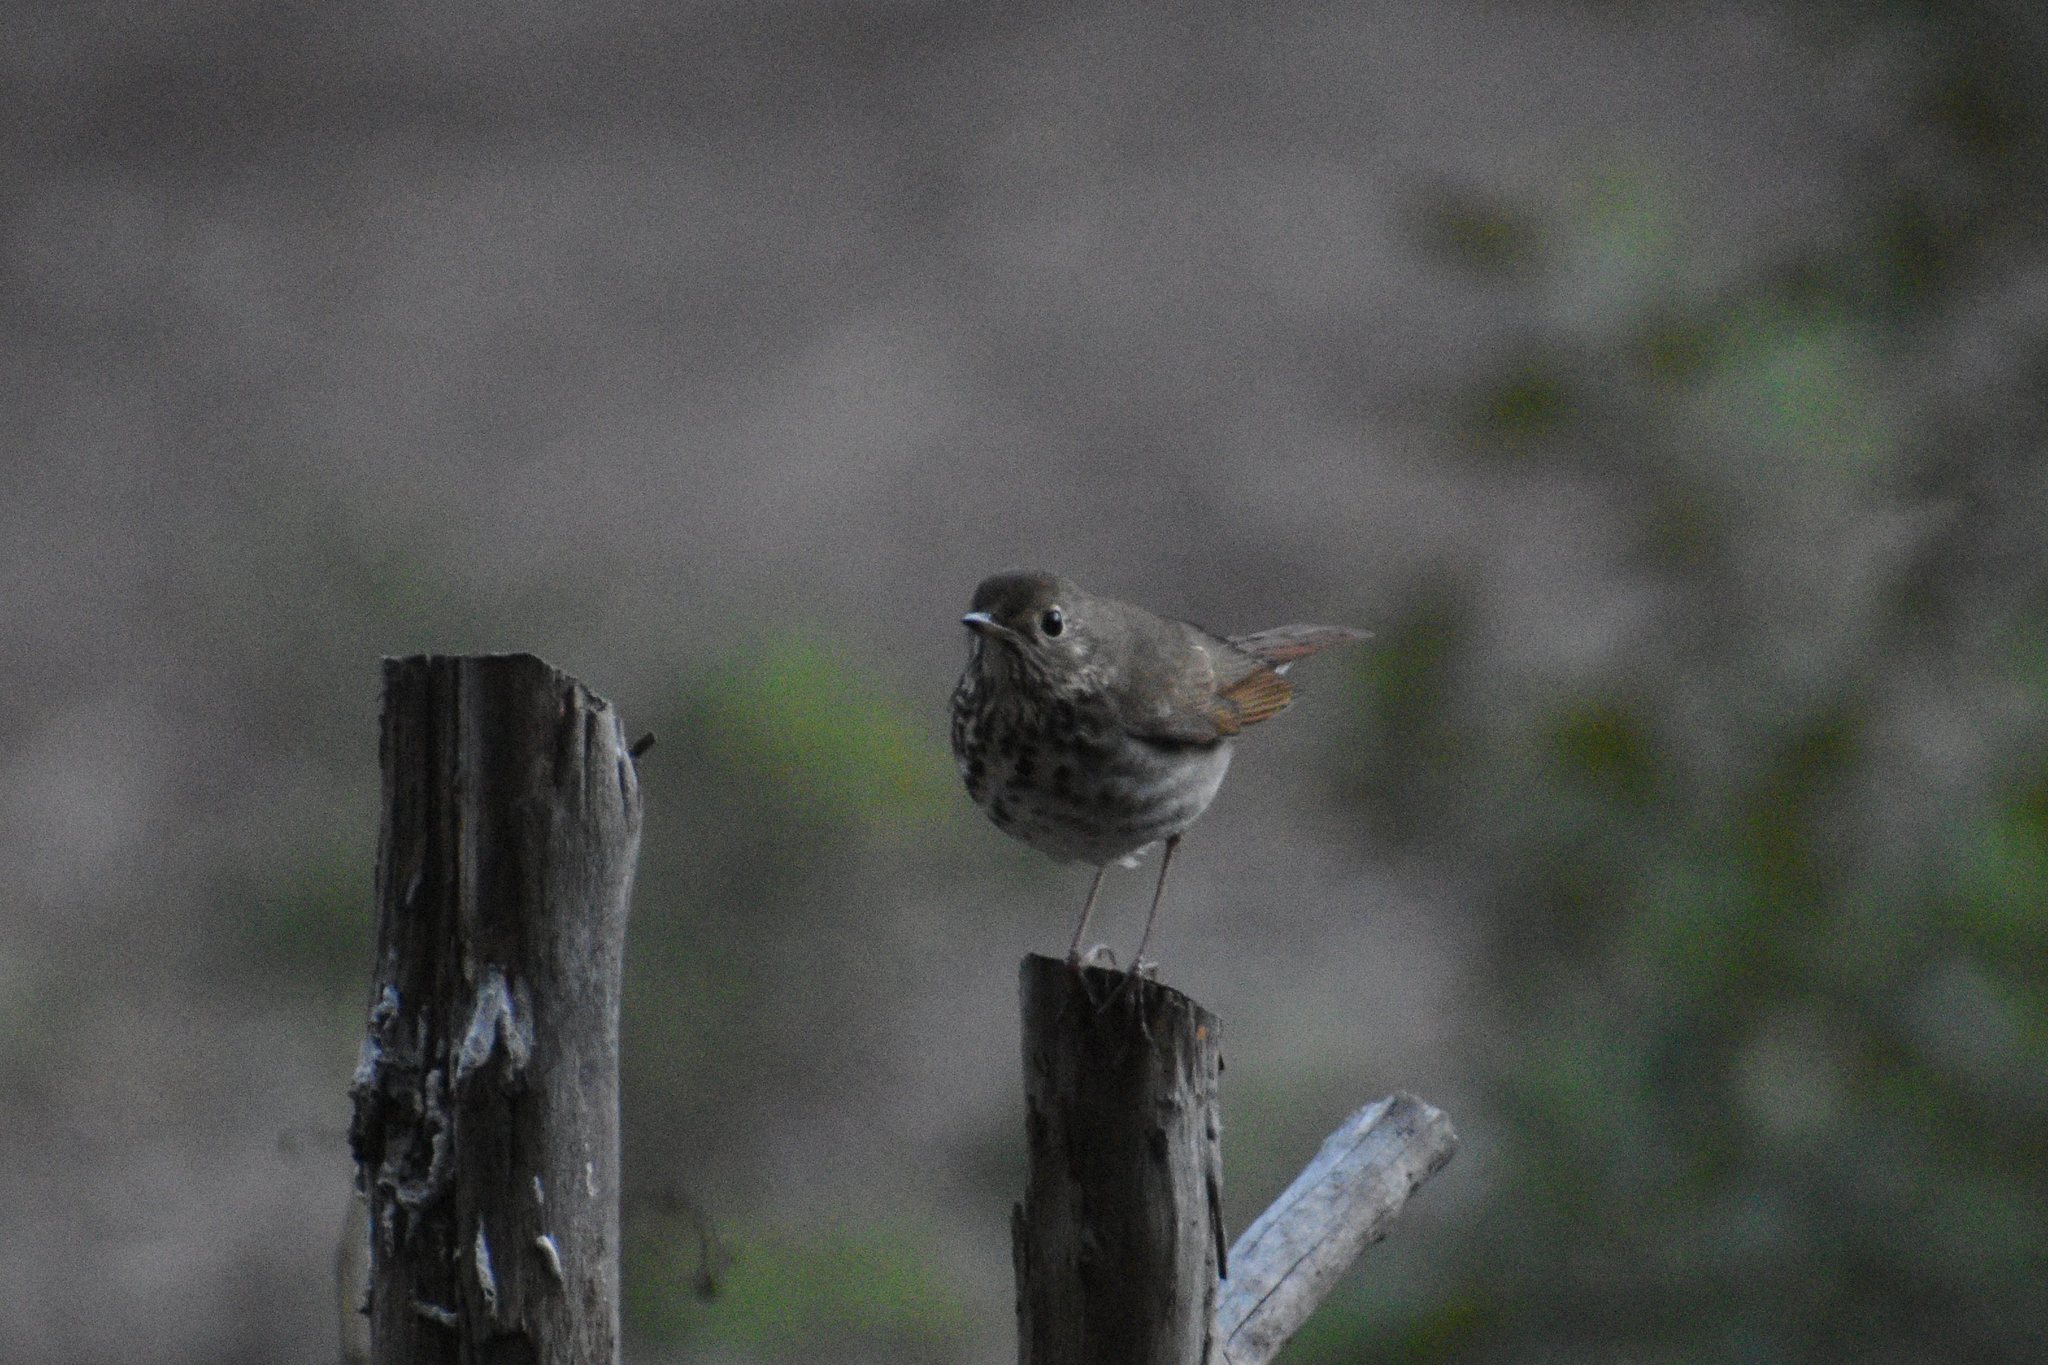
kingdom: Animalia
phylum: Chordata
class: Aves
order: Passeriformes
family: Turdidae
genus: Catharus
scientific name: Catharus guttatus
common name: Hermit thrush
